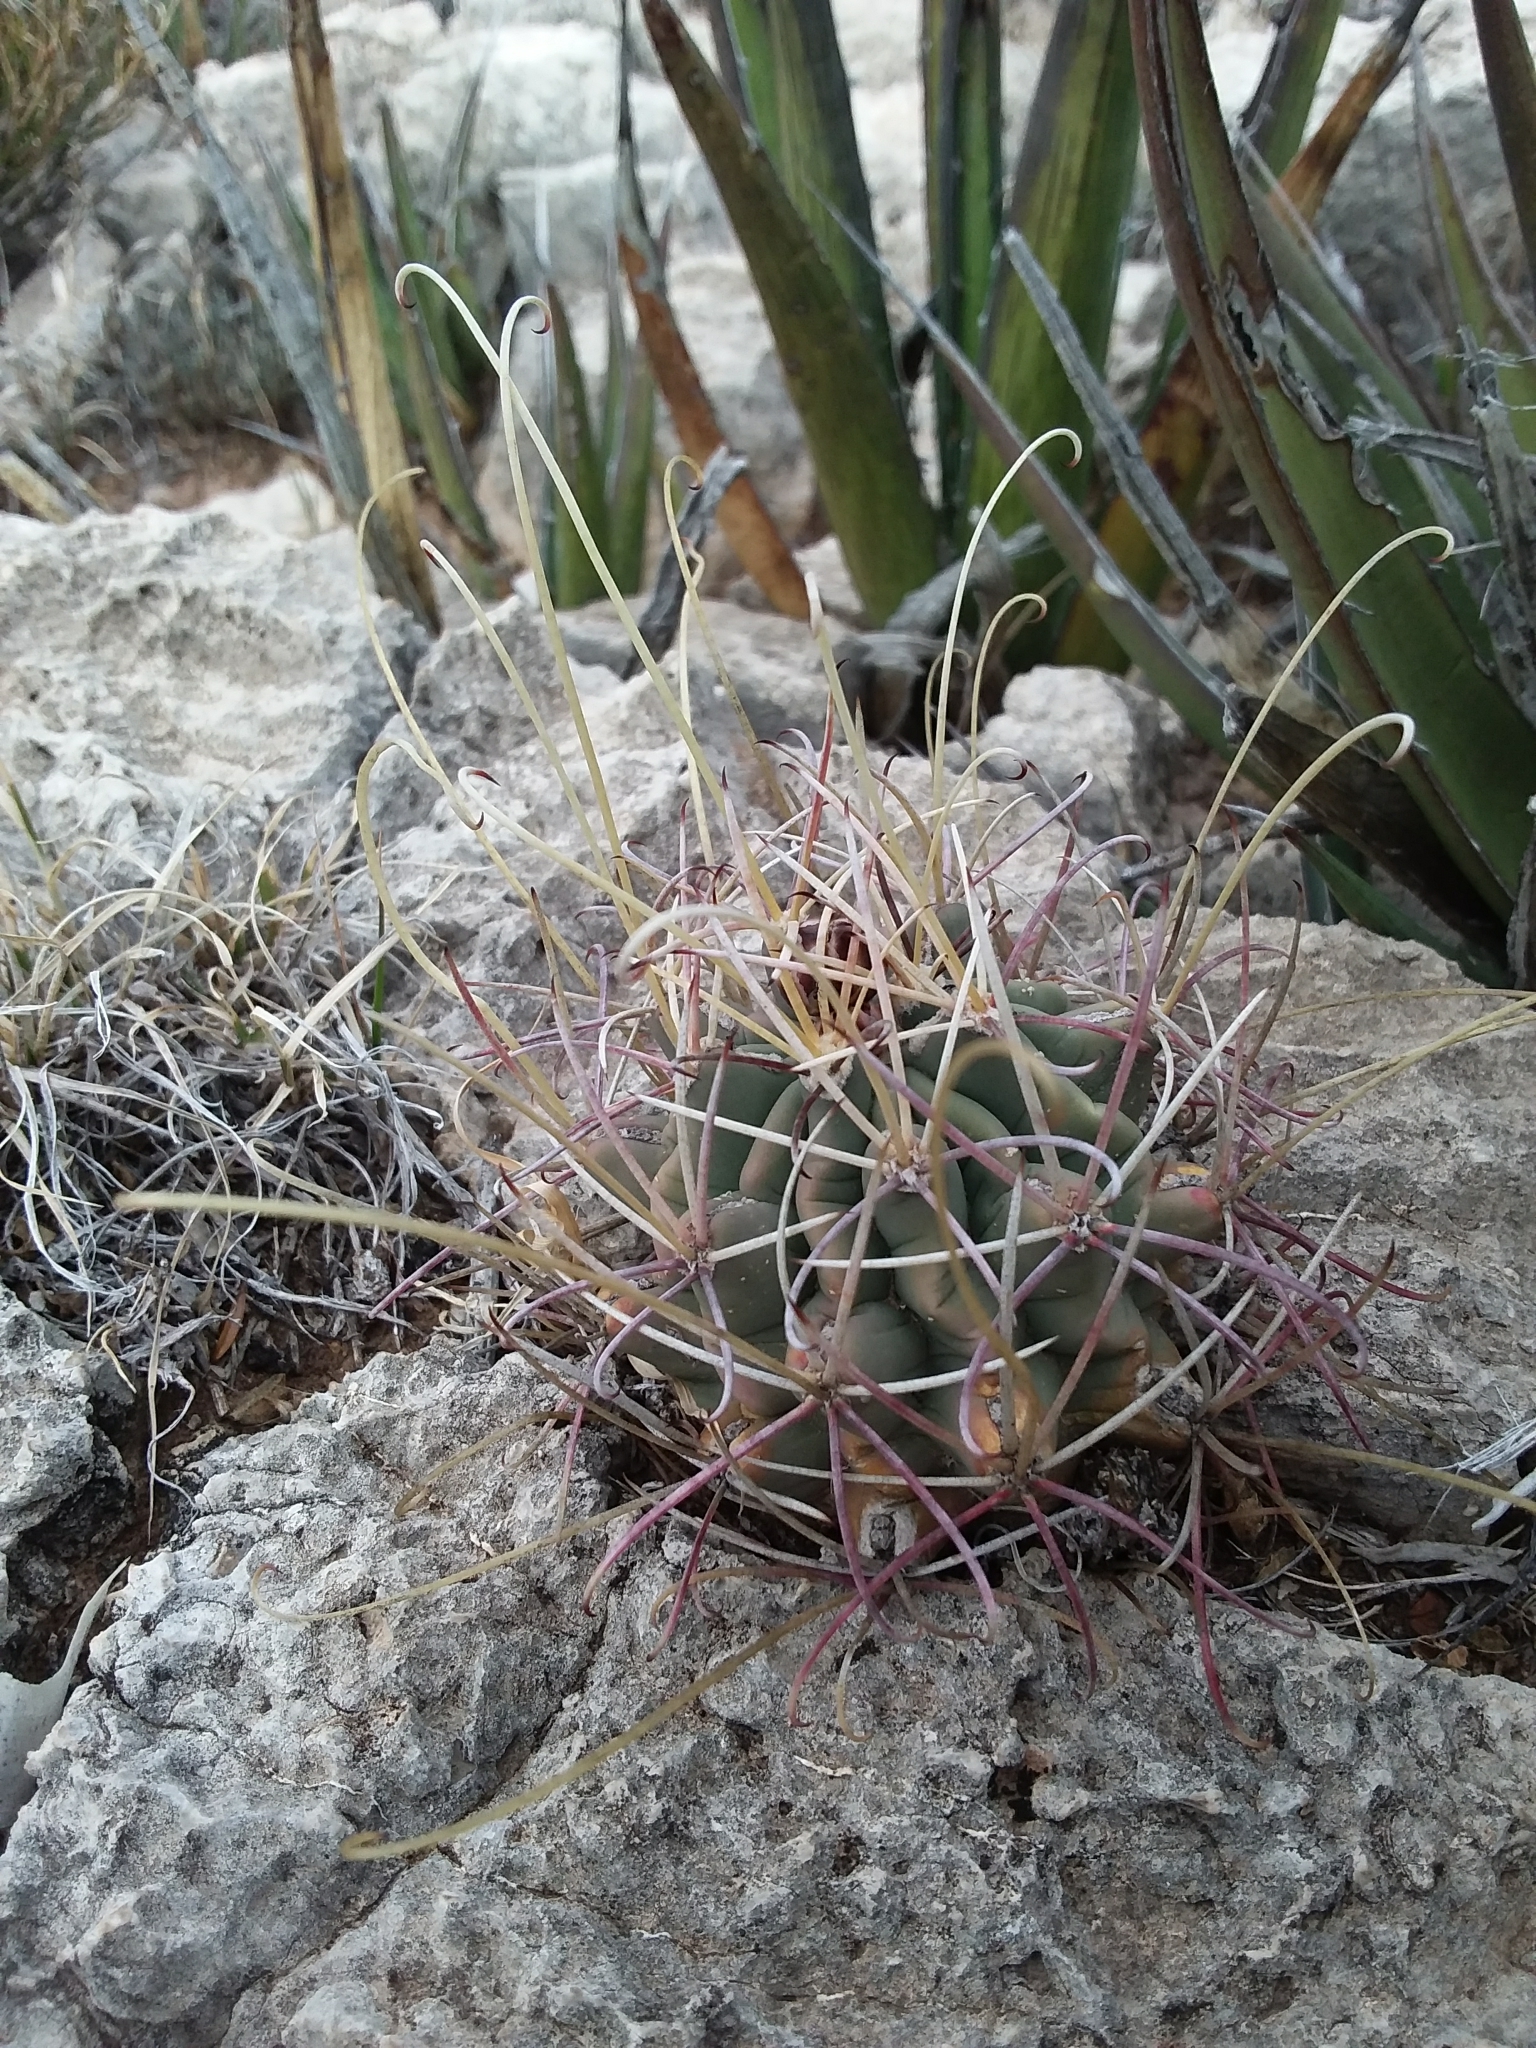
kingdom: Plantae
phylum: Tracheophyta
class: Magnoliopsida
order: Caryophyllales
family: Cactaceae
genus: Ferocactus
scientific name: Ferocactus uncinatus
